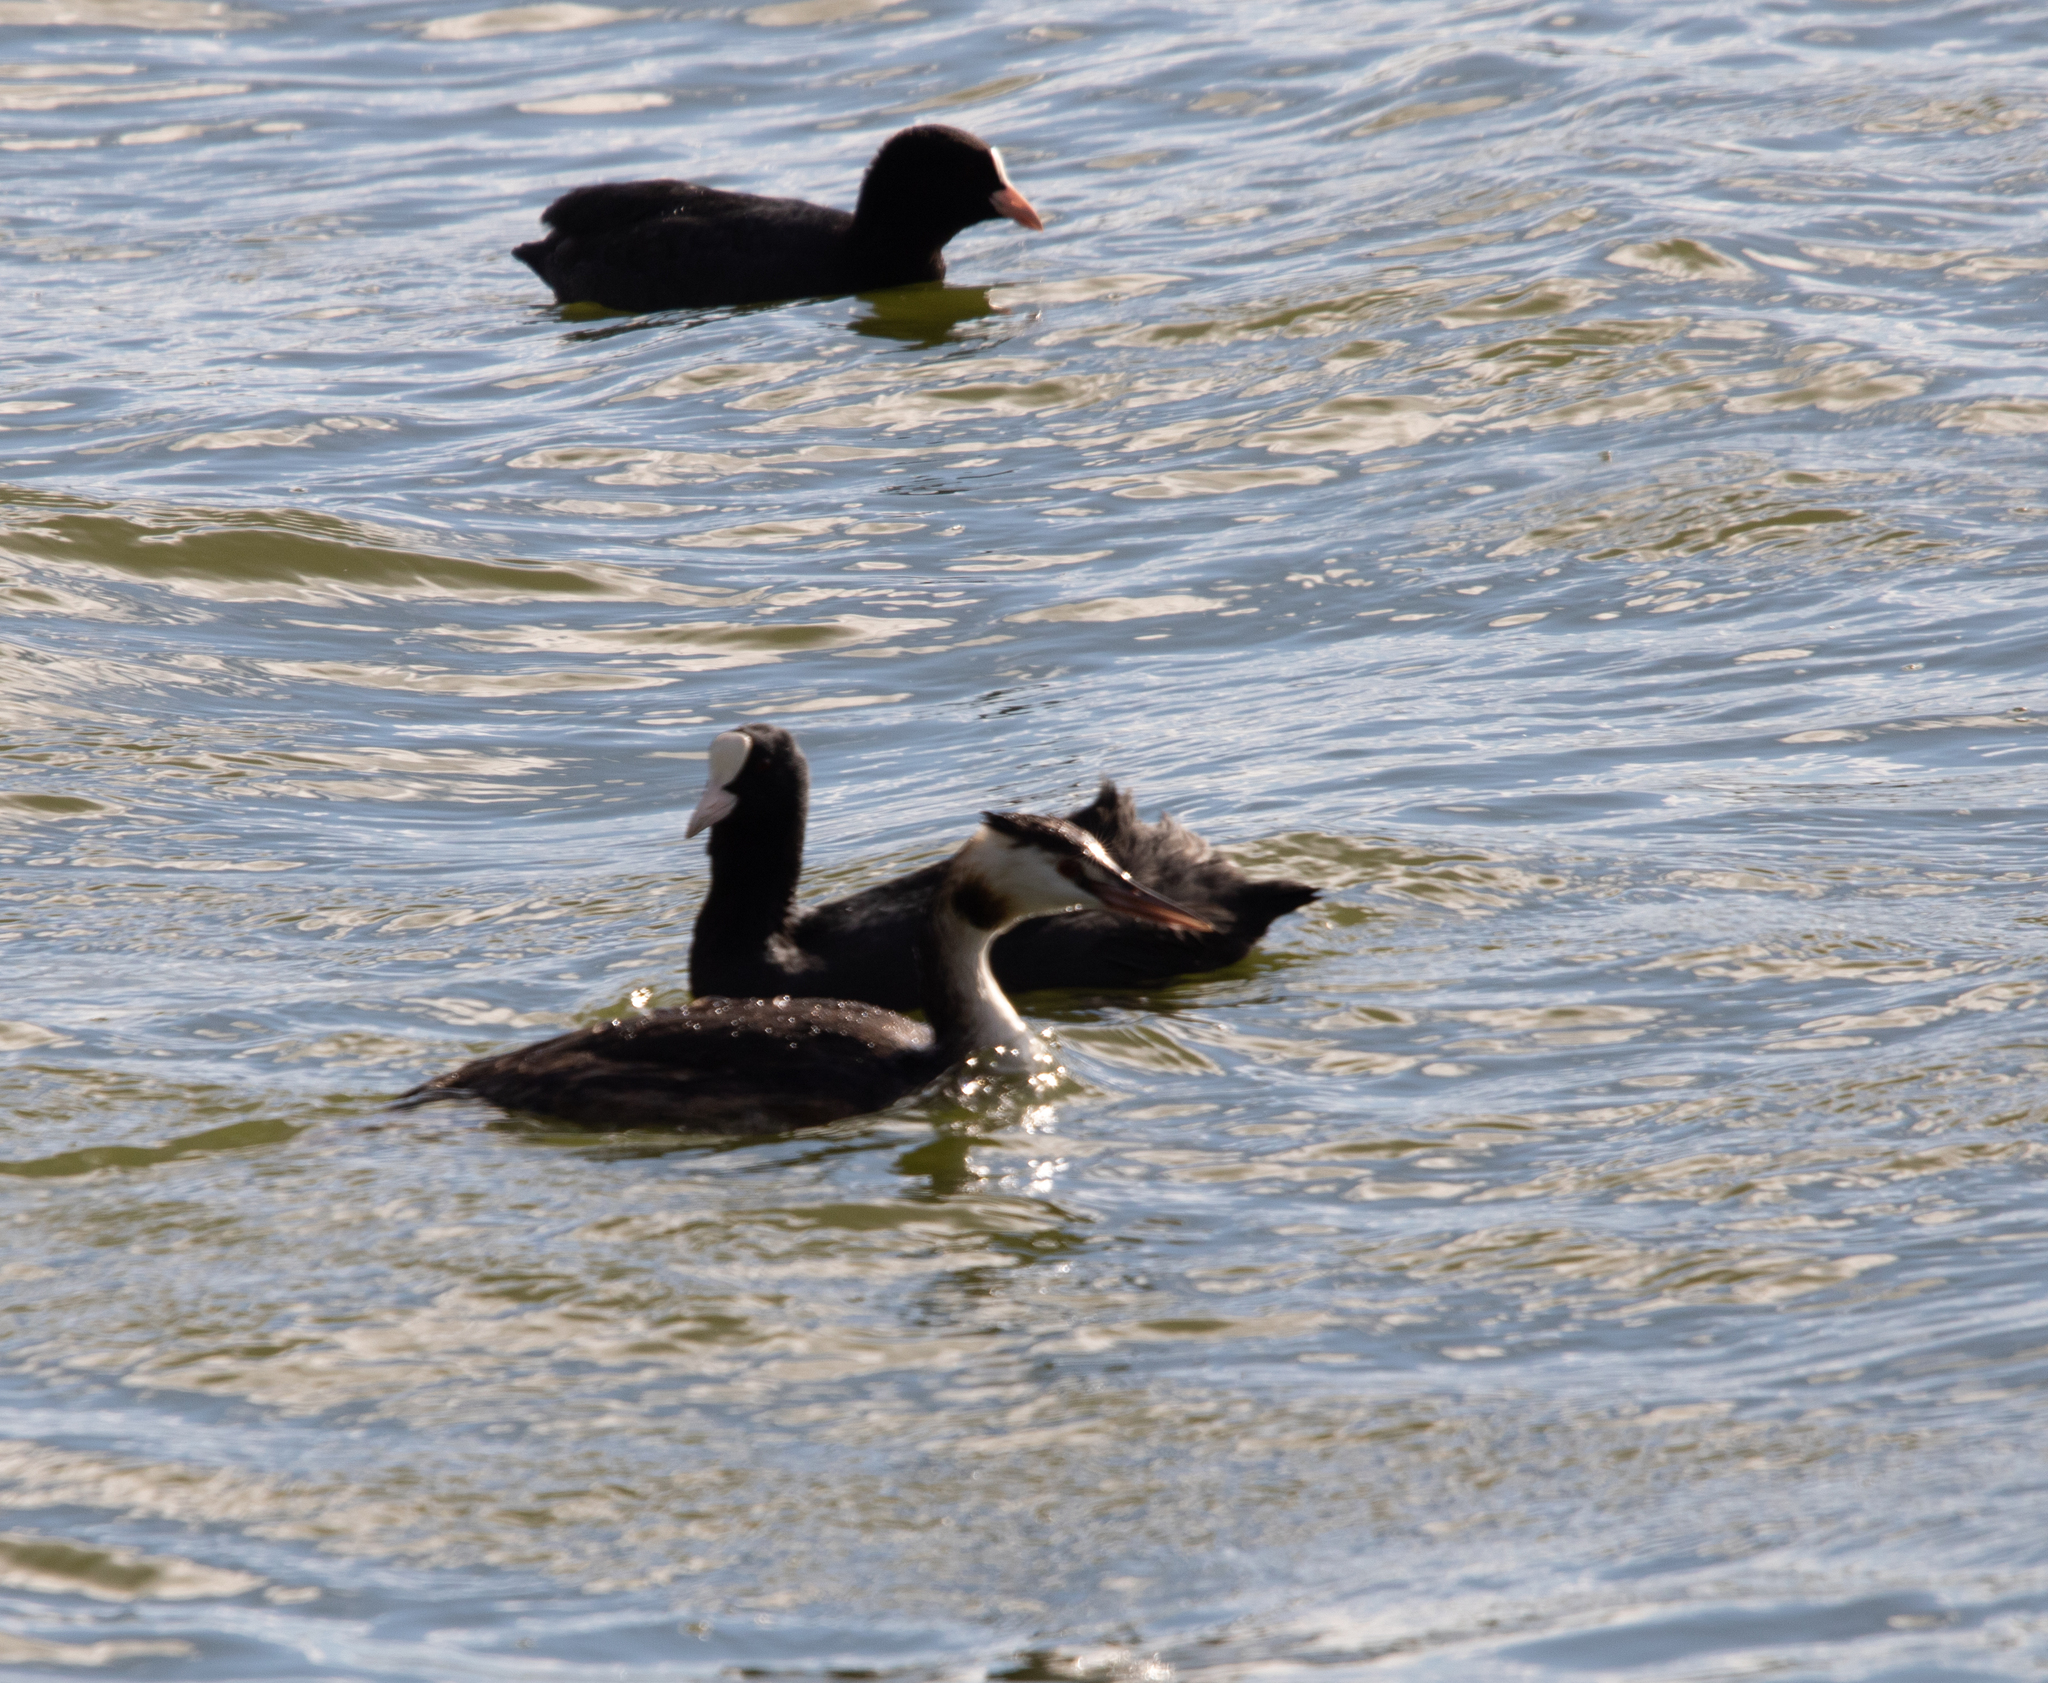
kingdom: Animalia
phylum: Chordata
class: Aves
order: Podicipediformes
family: Podicipedidae
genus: Podiceps
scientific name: Podiceps cristatus
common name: Great crested grebe
